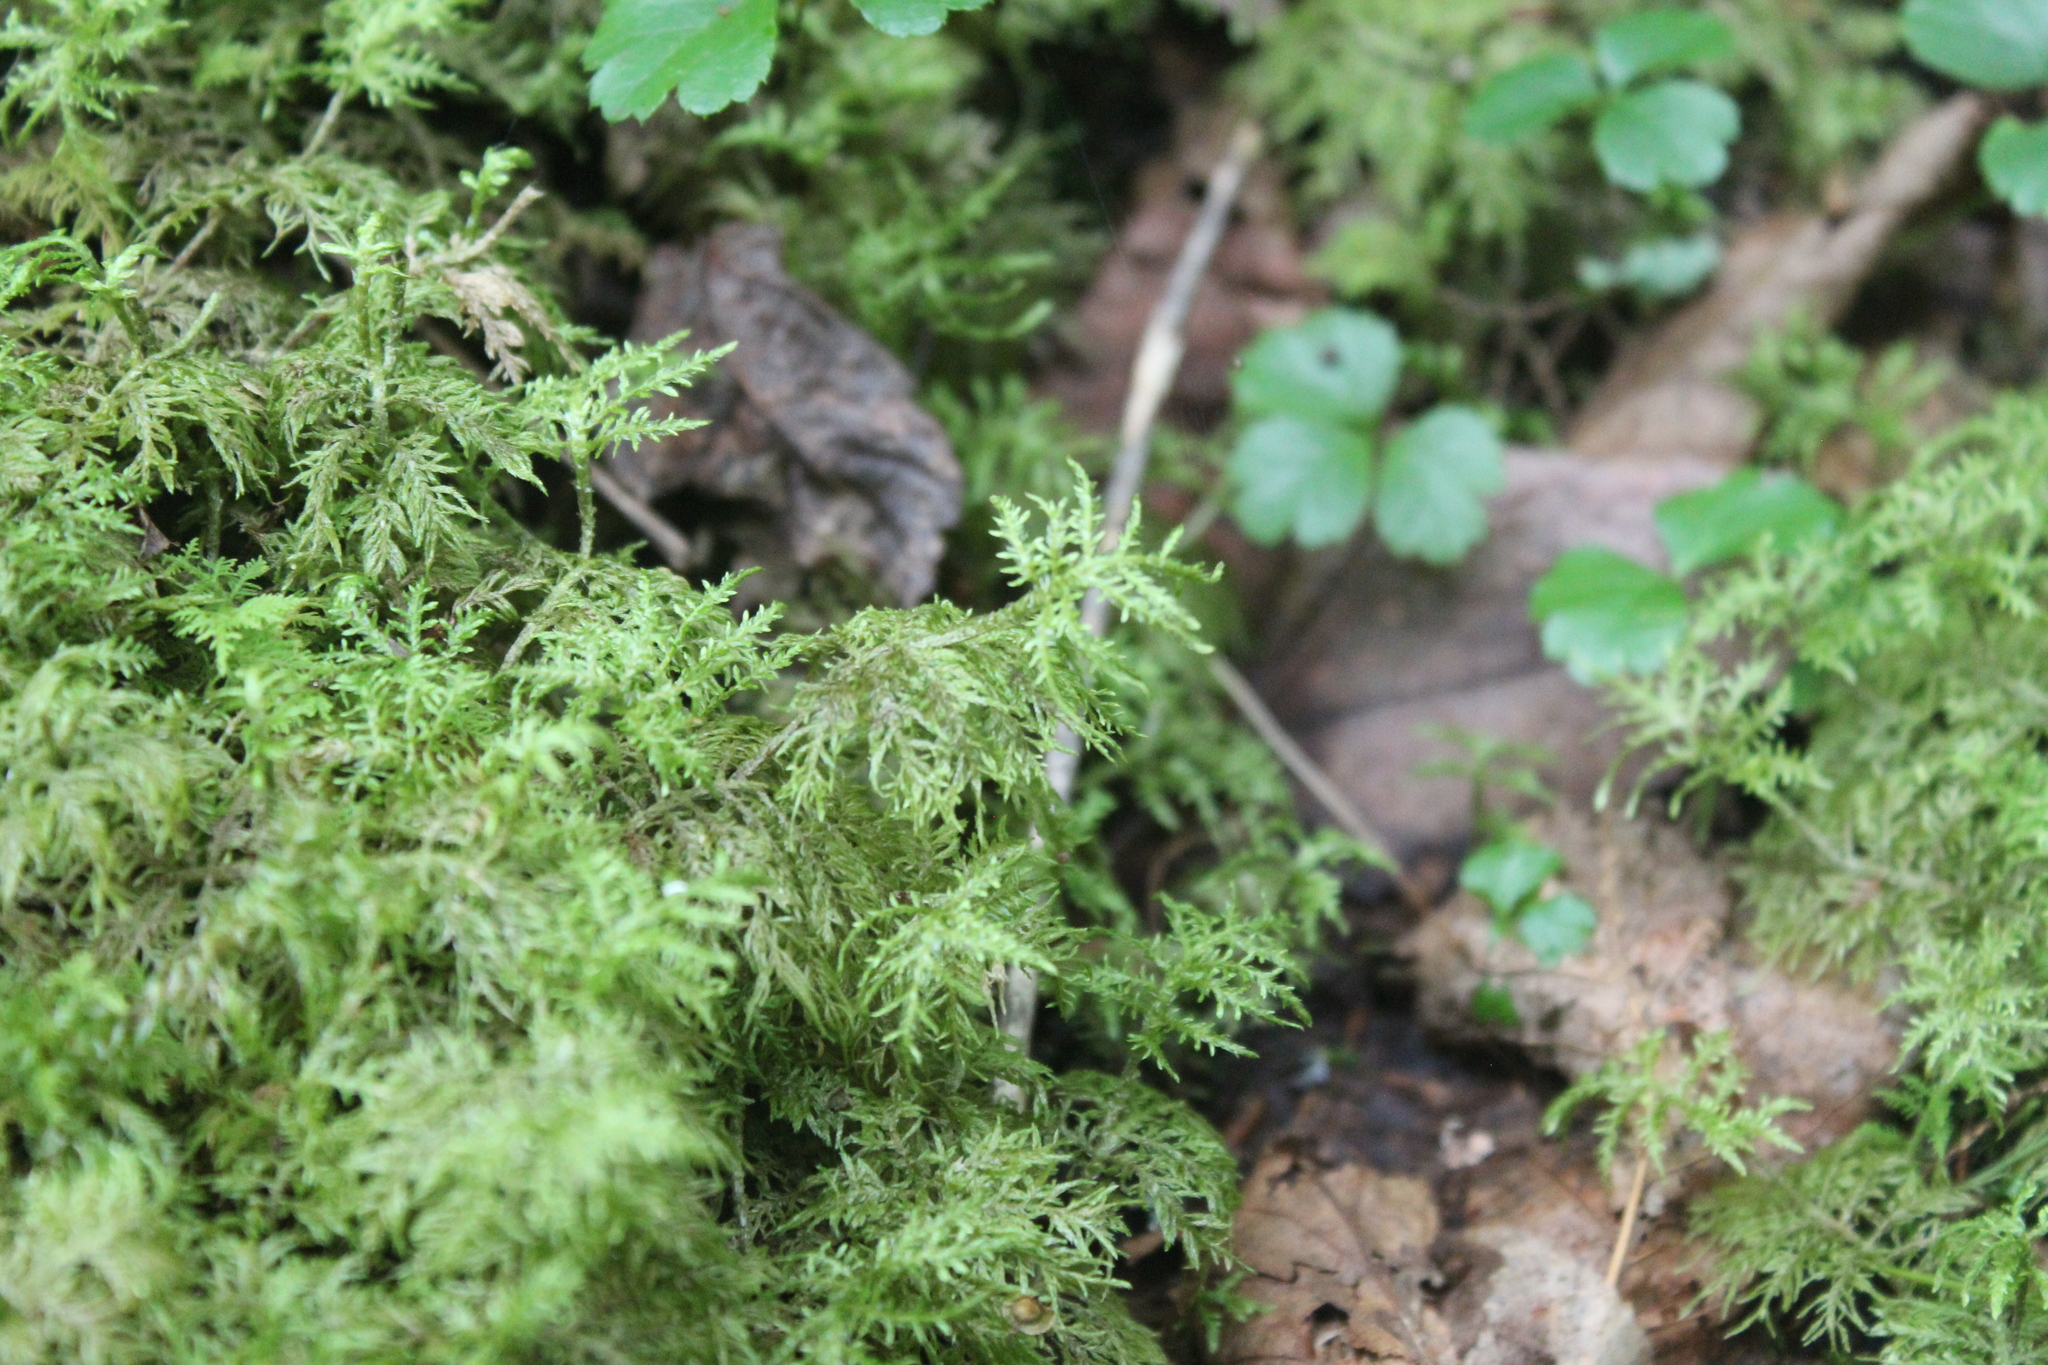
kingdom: Plantae
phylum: Bryophyta
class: Bryopsida
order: Hypnales
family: Hylocomiaceae
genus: Hylocomium
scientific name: Hylocomium splendens
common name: Stairstep moss
